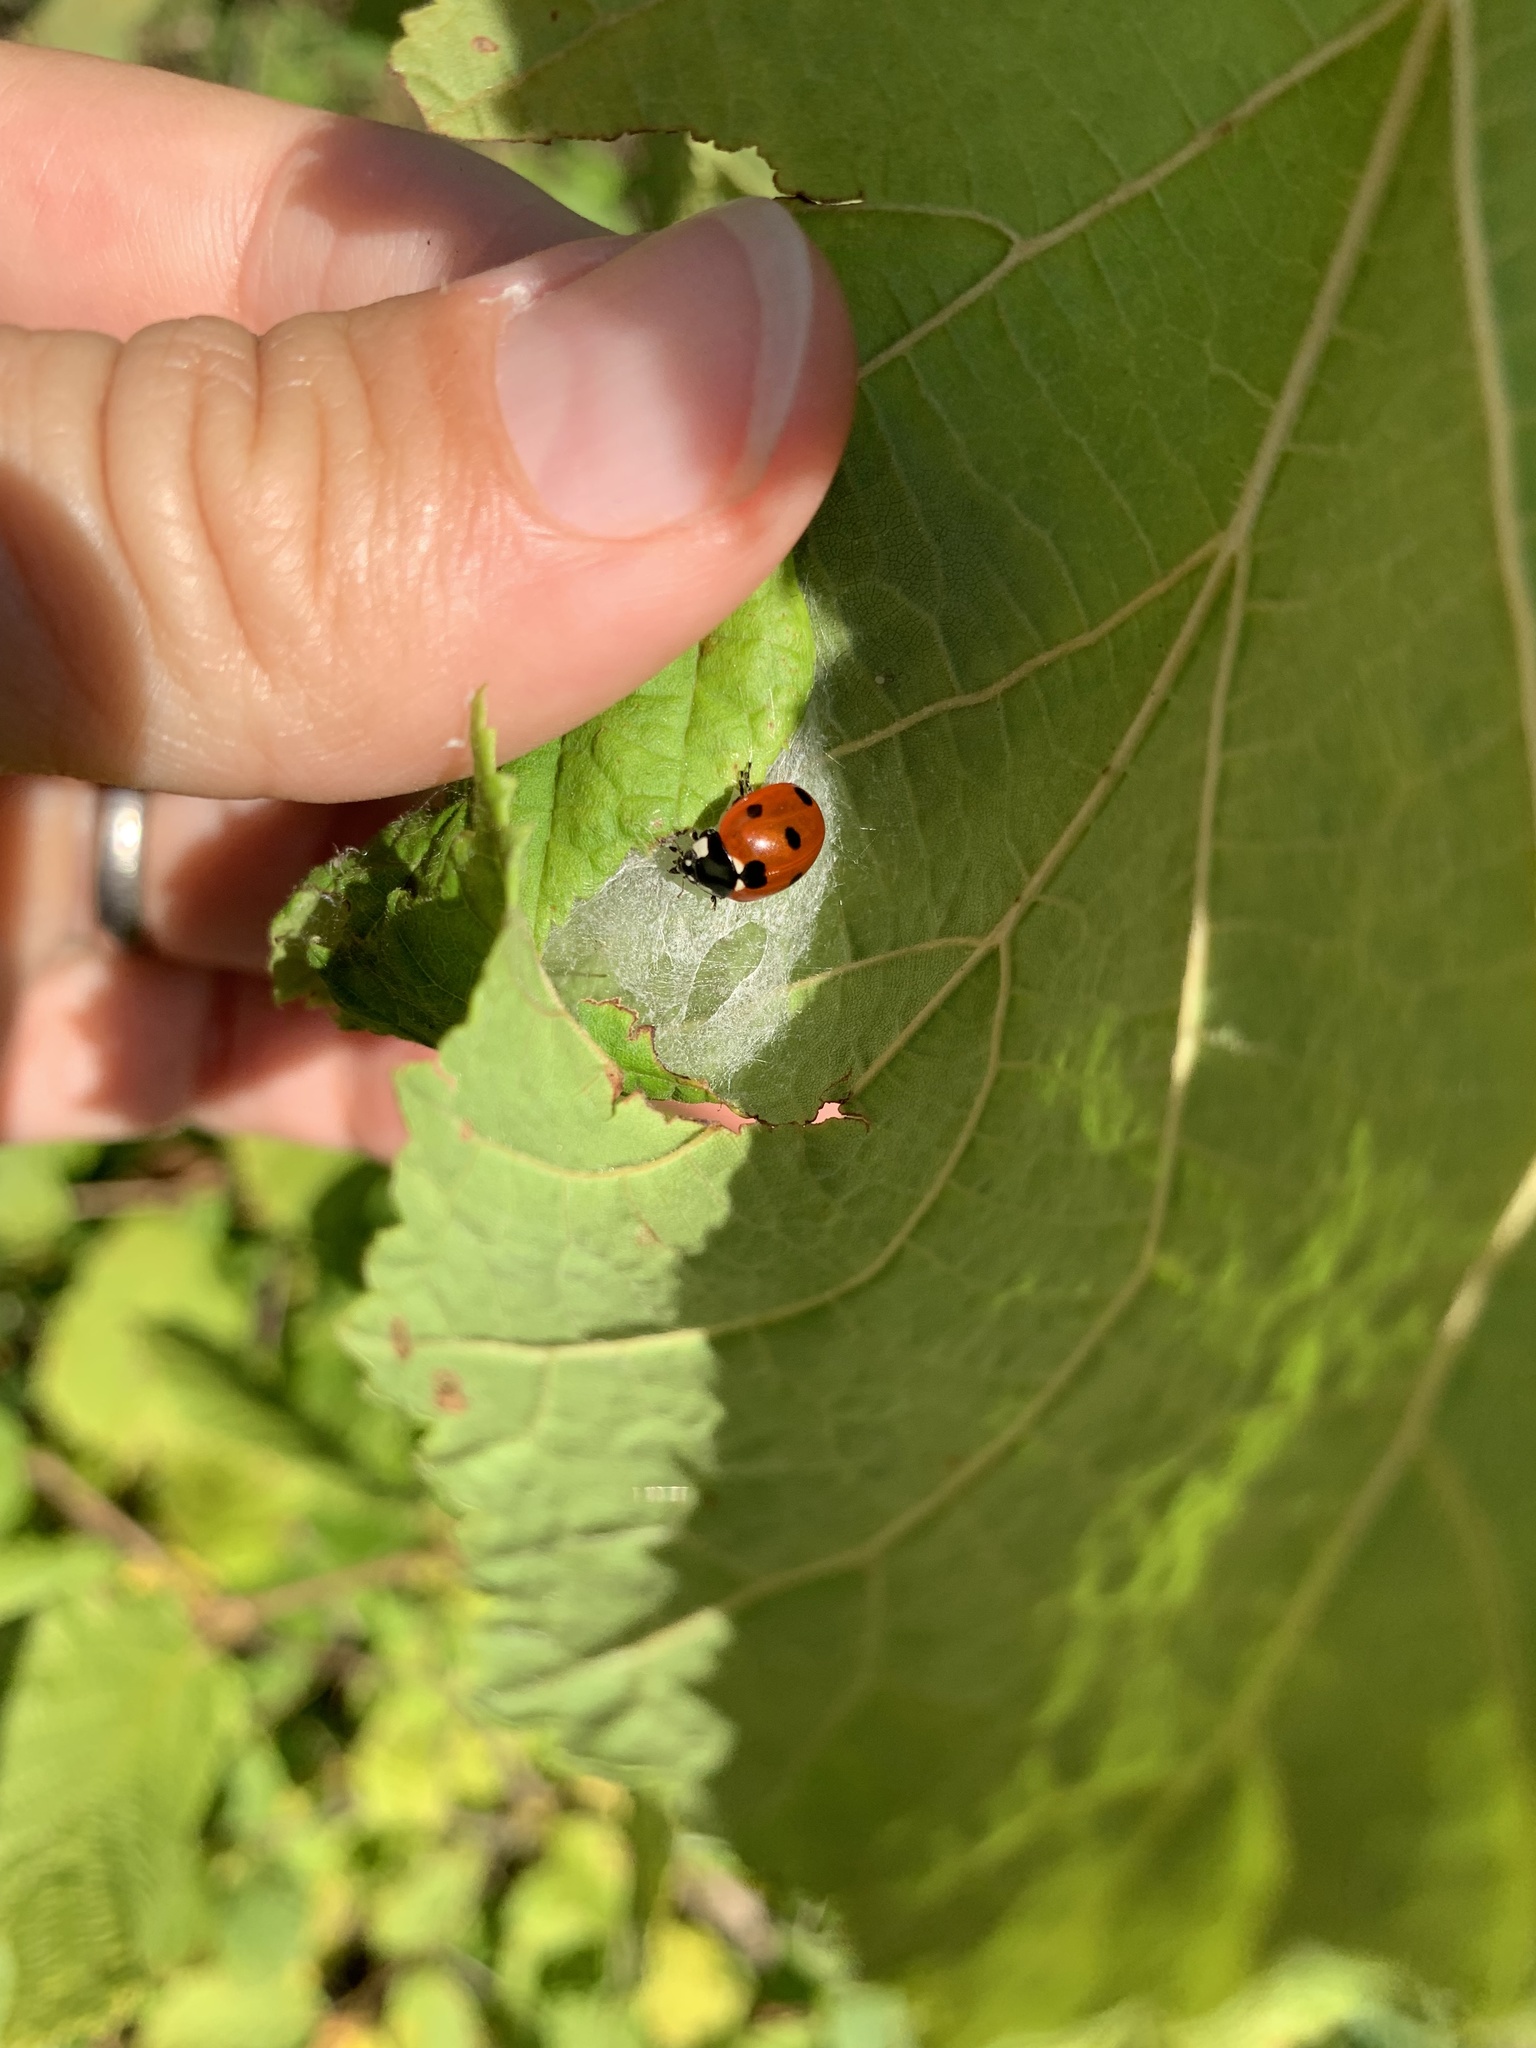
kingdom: Animalia
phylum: Arthropoda
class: Insecta
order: Coleoptera
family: Coccinellidae
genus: Coccinella
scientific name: Coccinella septempunctata
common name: Sevenspotted lady beetle
